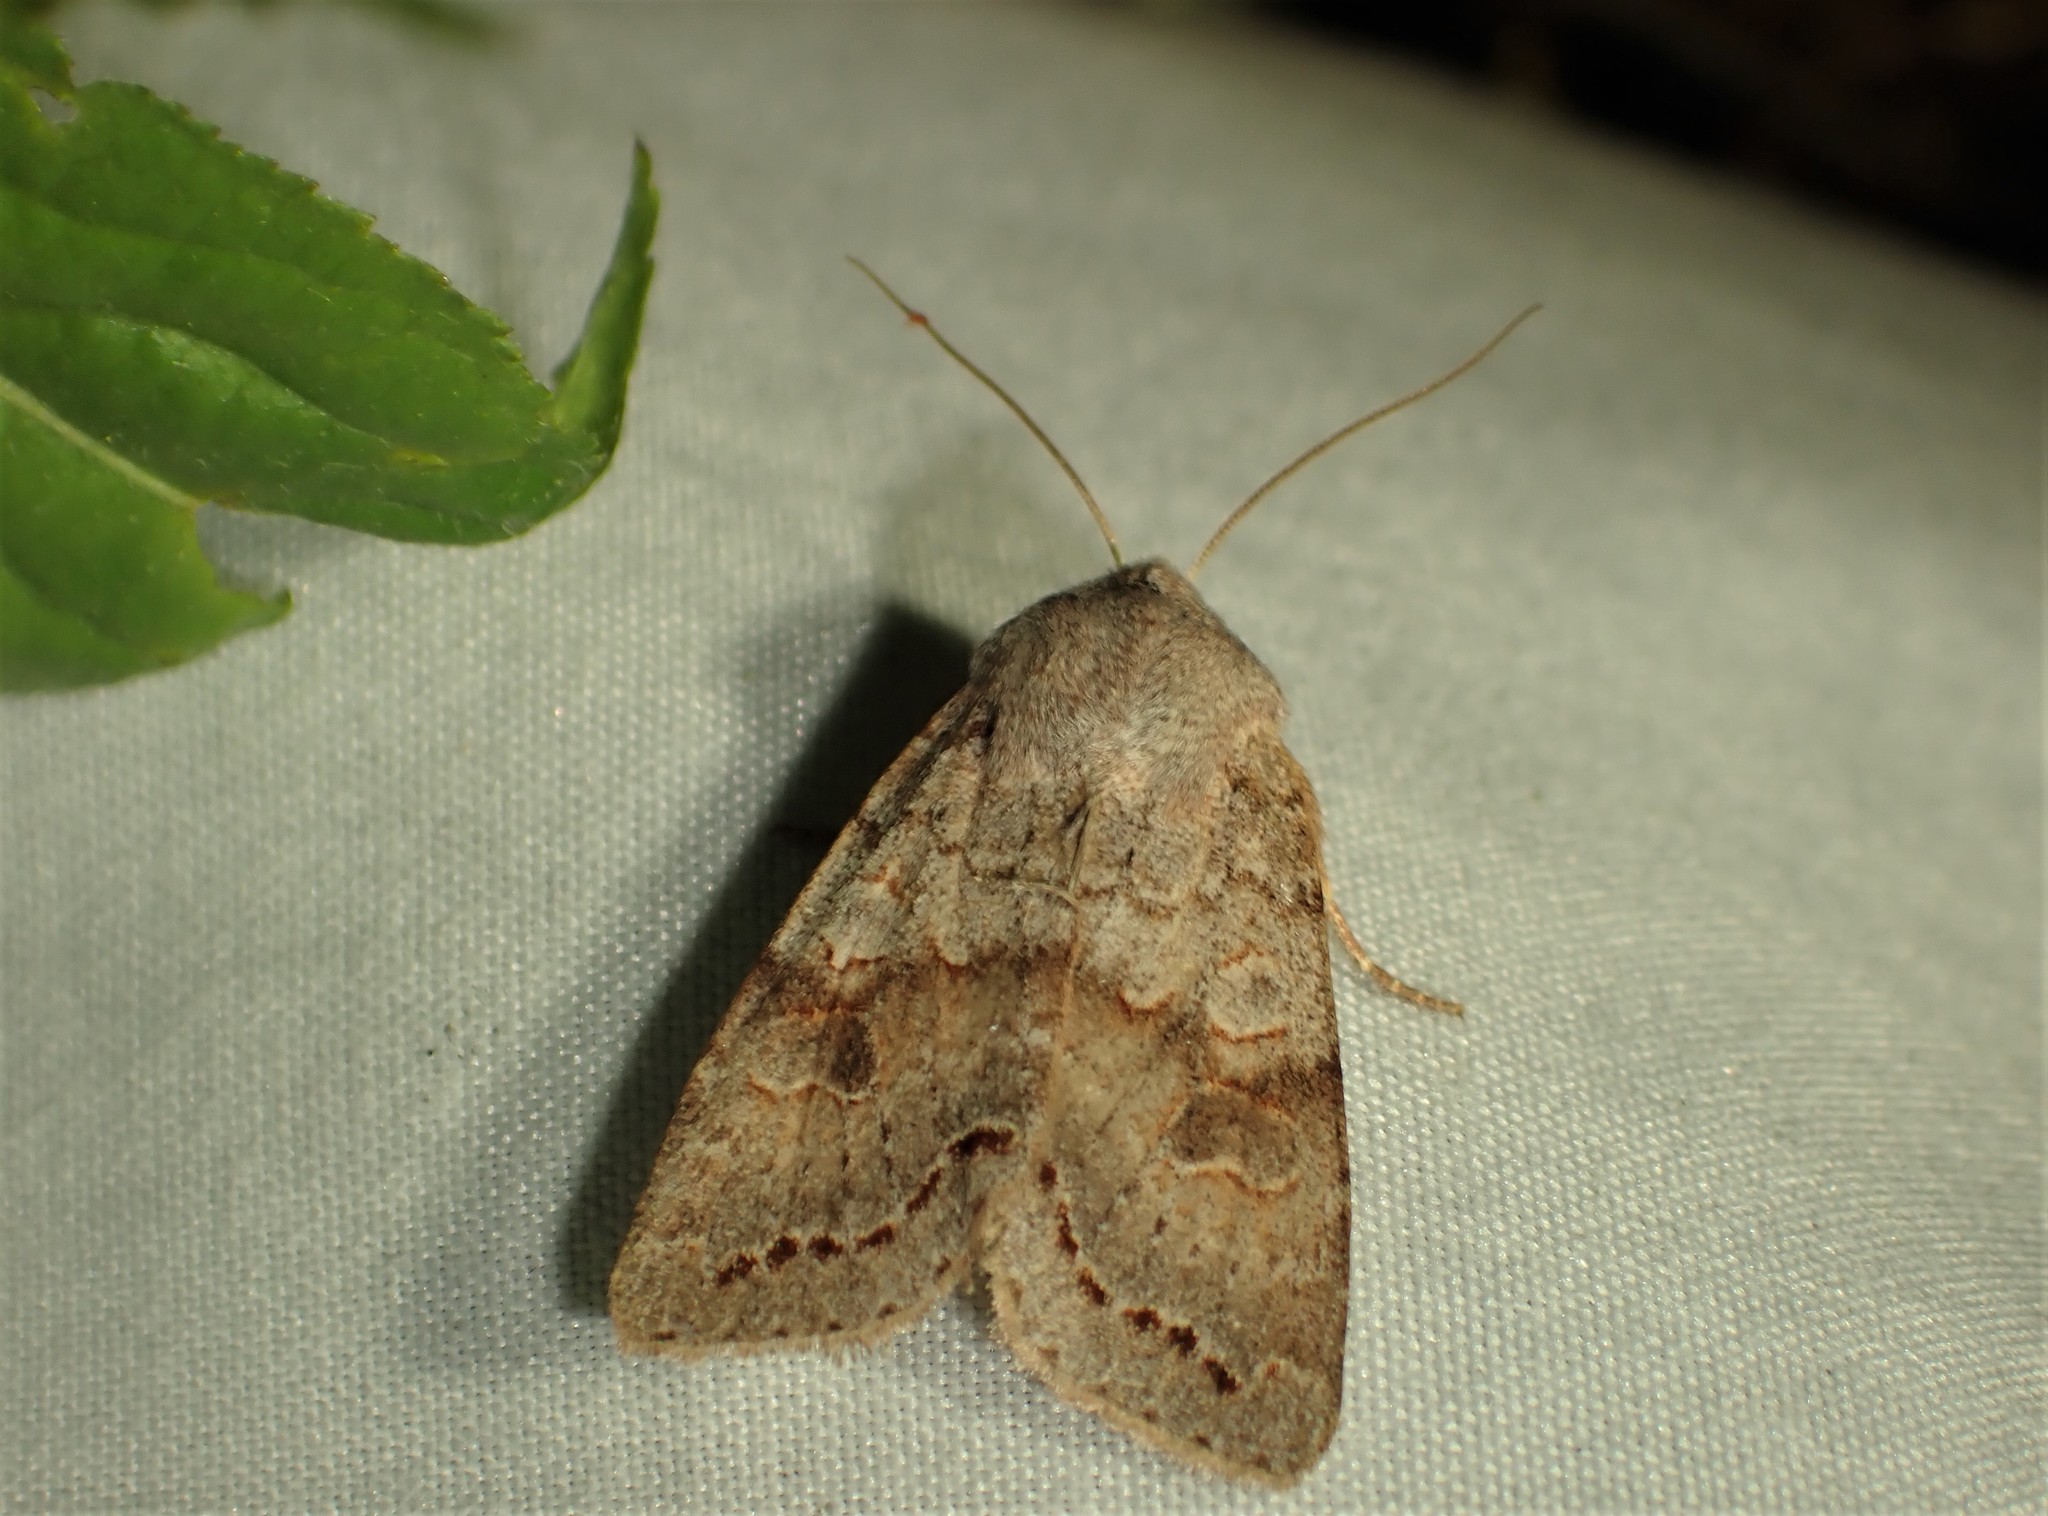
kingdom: Animalia
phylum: Arthropoda
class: Insecta
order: Lepidoptera
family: Noctuidae
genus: Orthosia
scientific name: Orthosia revicta
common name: Rusty whitesided caterpillar
